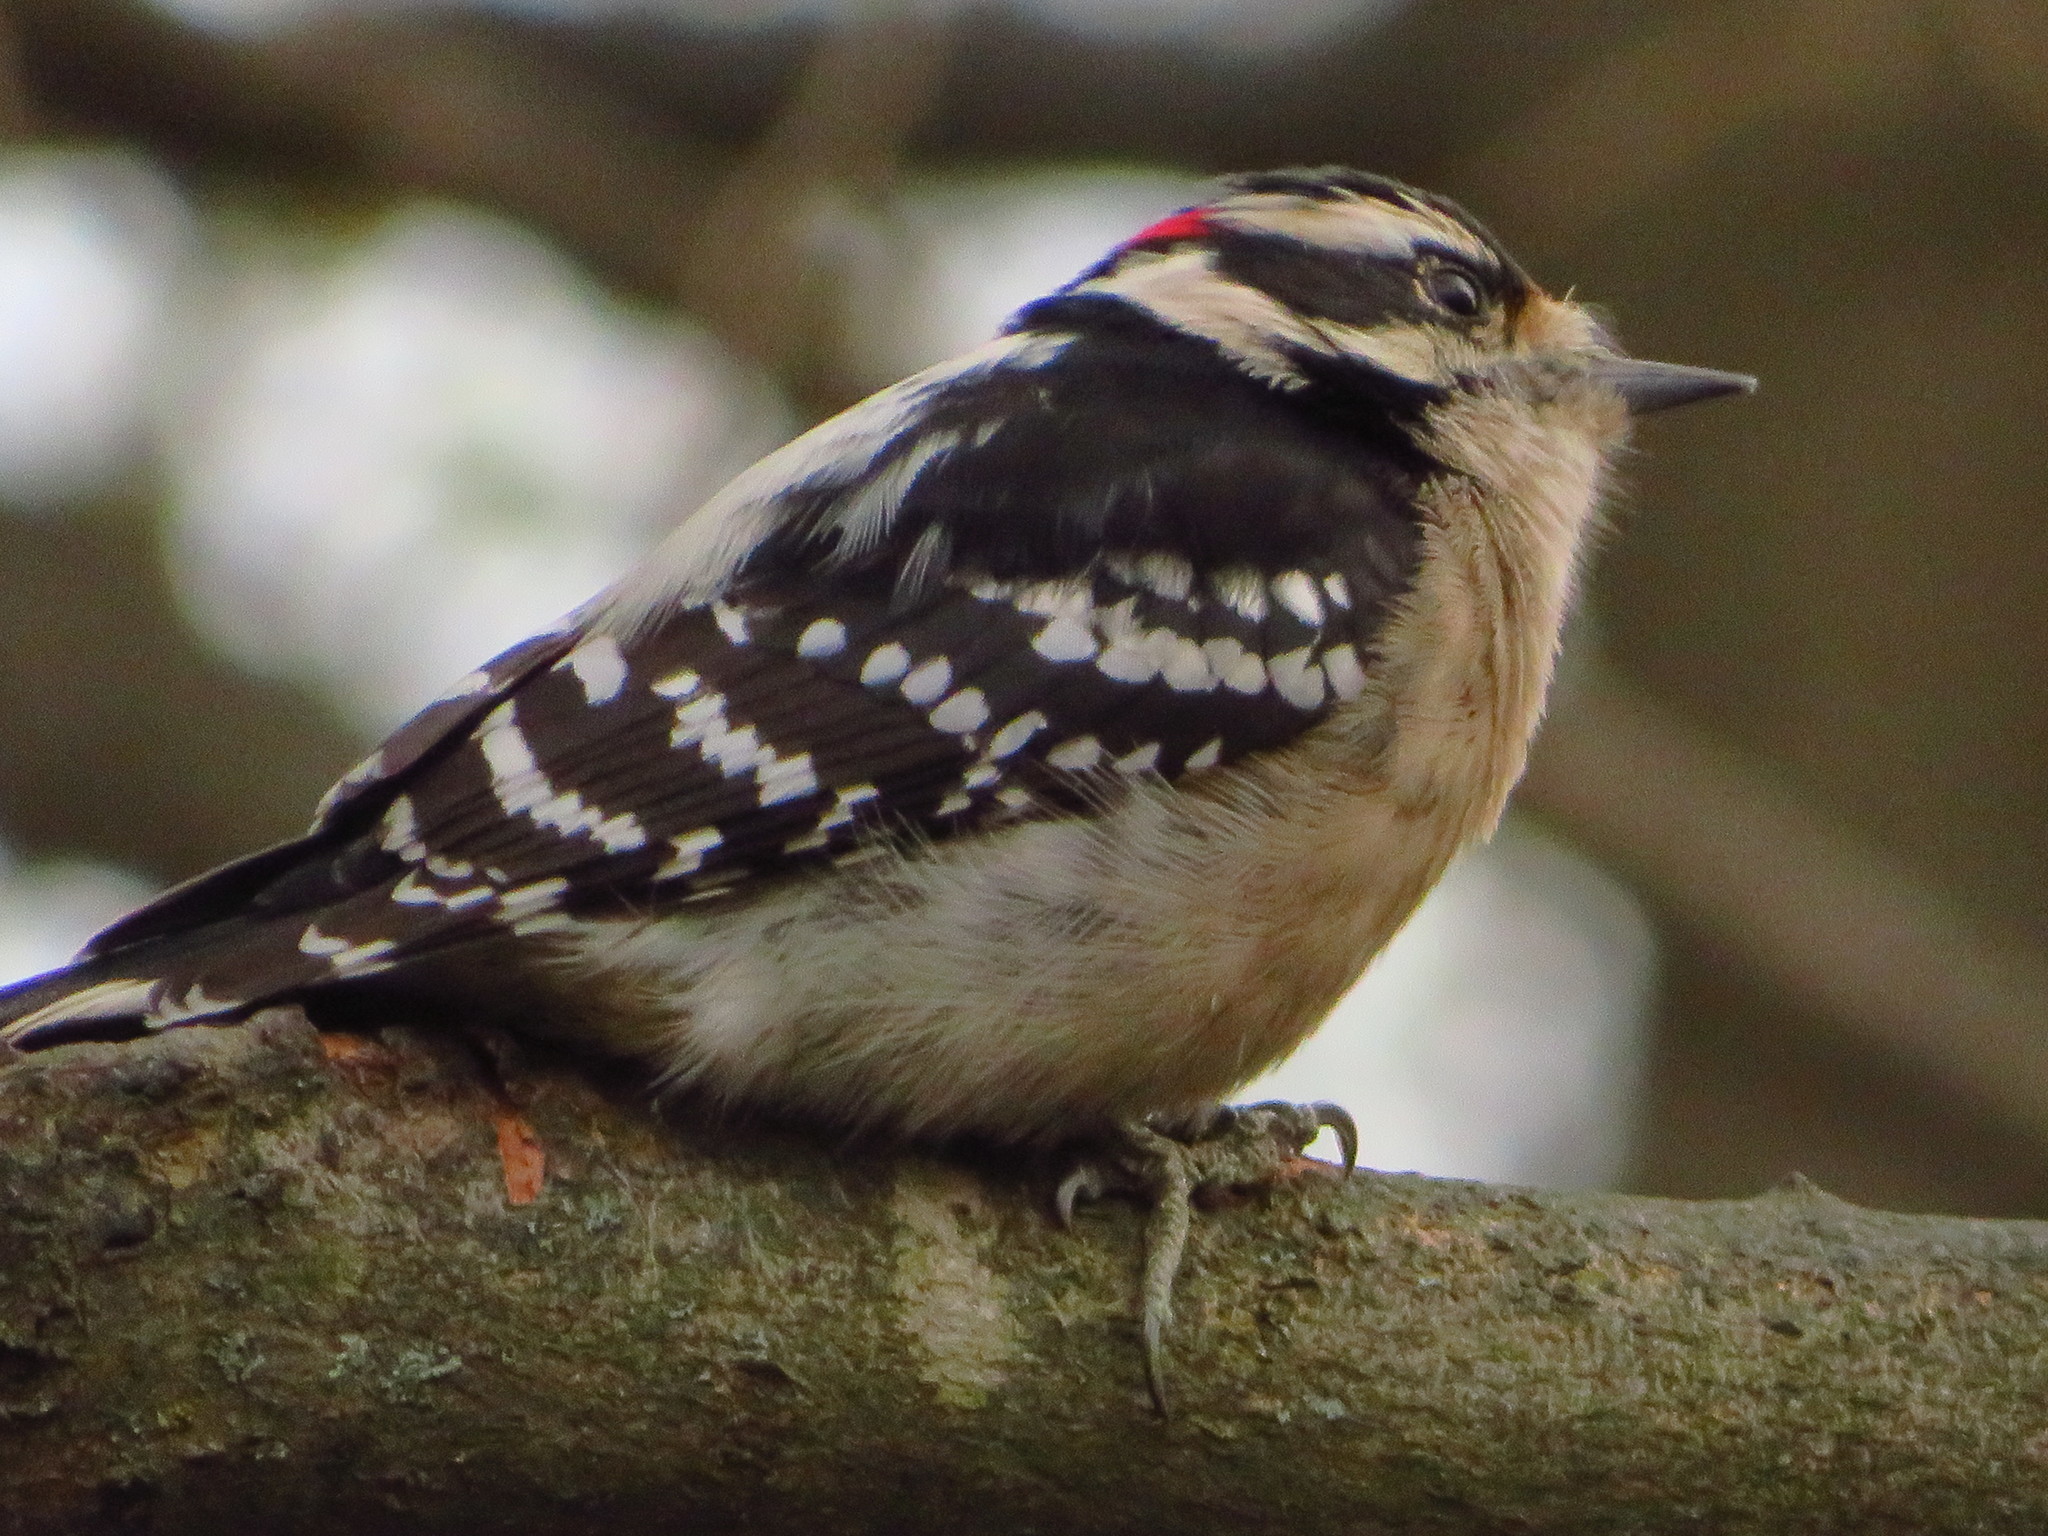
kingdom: Animalia
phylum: Chordata
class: Aves
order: Piciformes
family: Picidae
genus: Dryobates
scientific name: Dryobates pubescens
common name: Downy woodpecker
